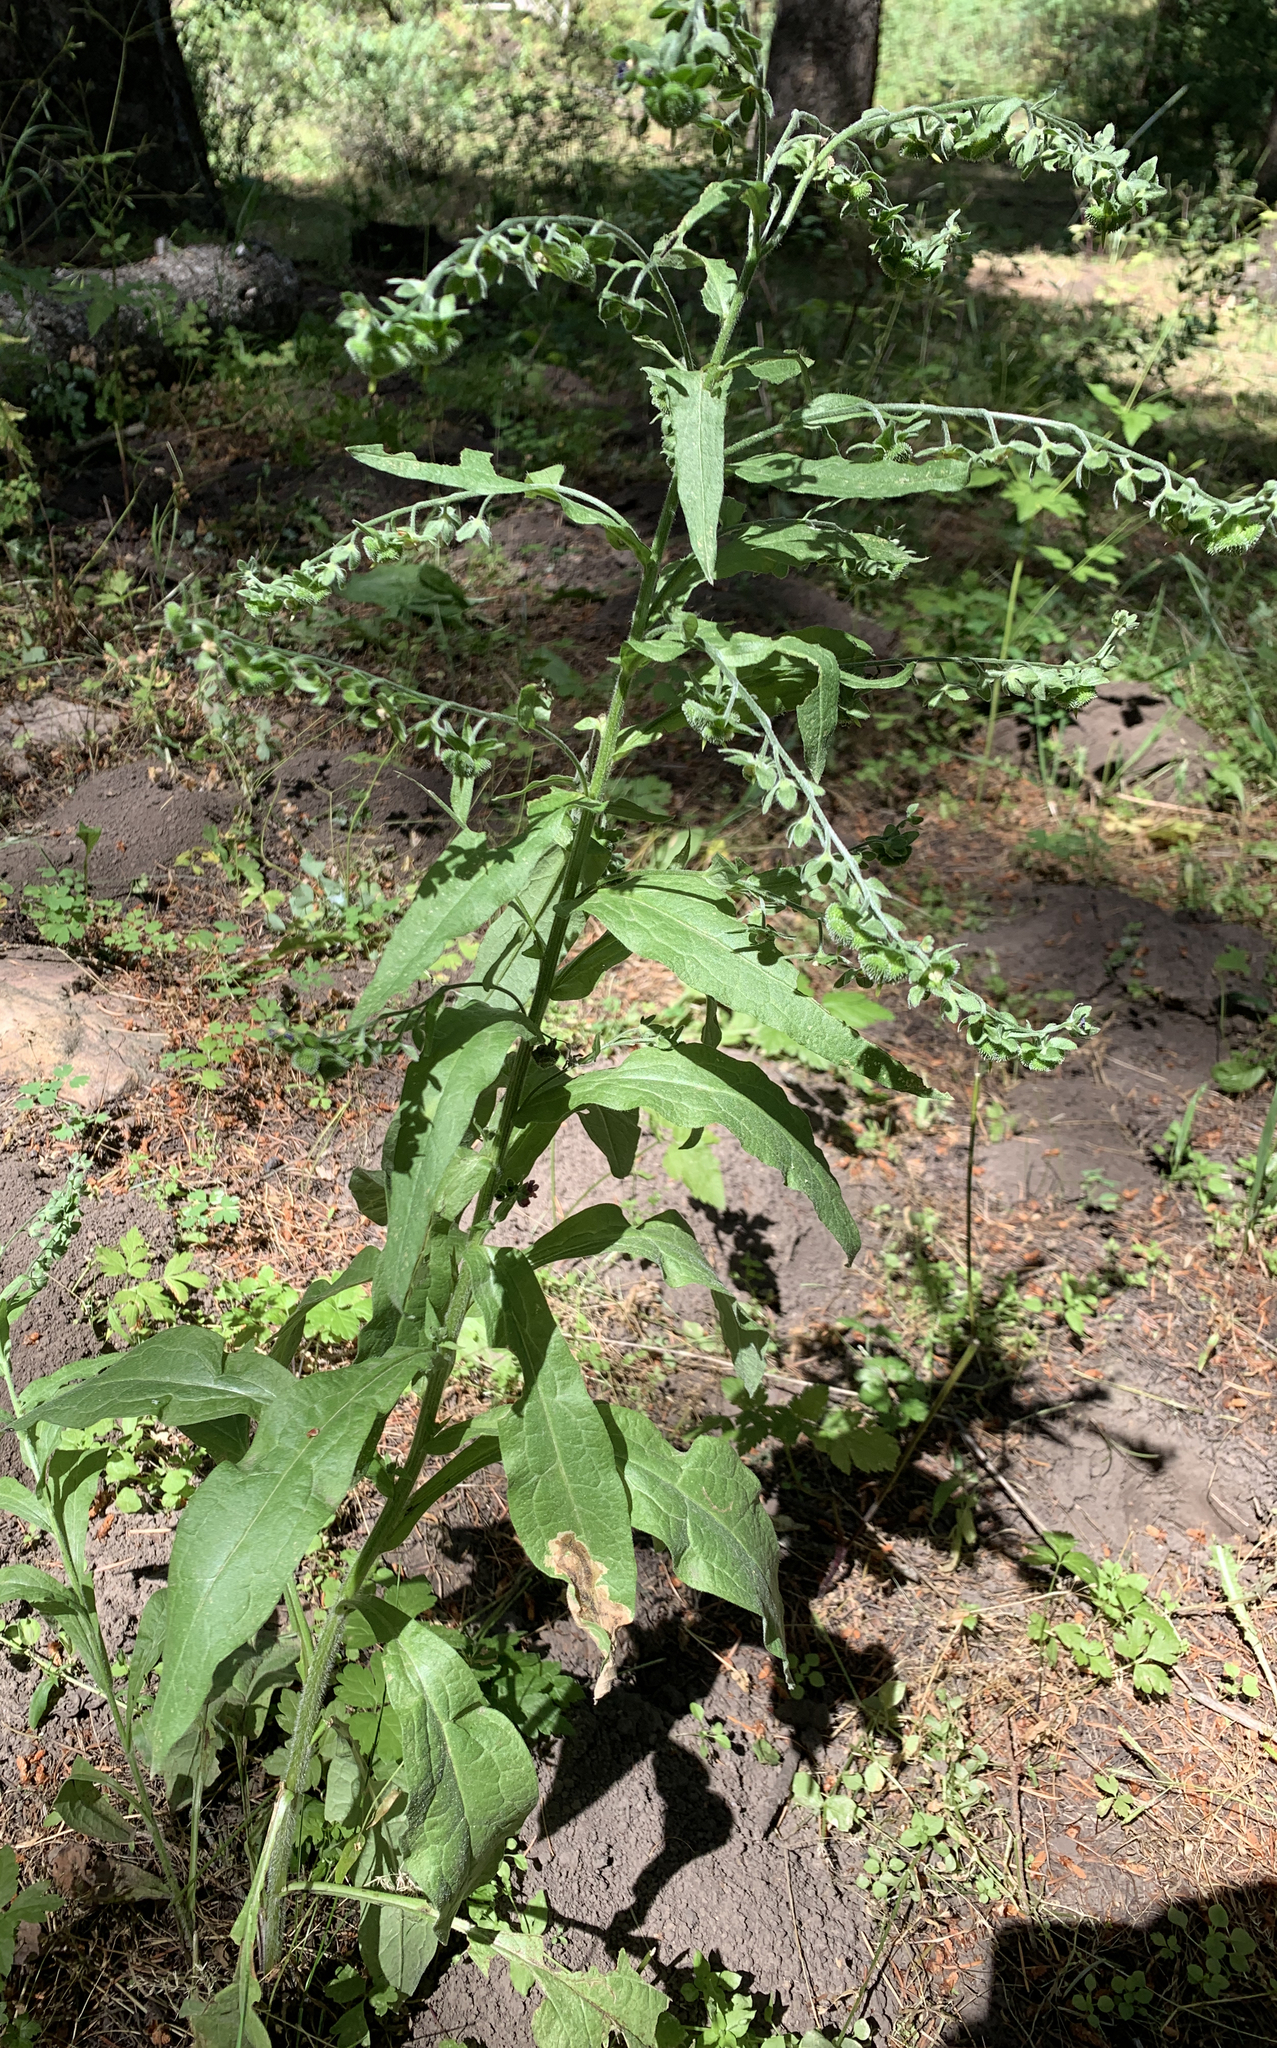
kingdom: Plantae
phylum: Tracheophyta
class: Magnoliopsida
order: Boraginales
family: Boraginaceae
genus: Cynoglossum
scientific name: Cynoglossum officinale
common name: Hound's-tongue
